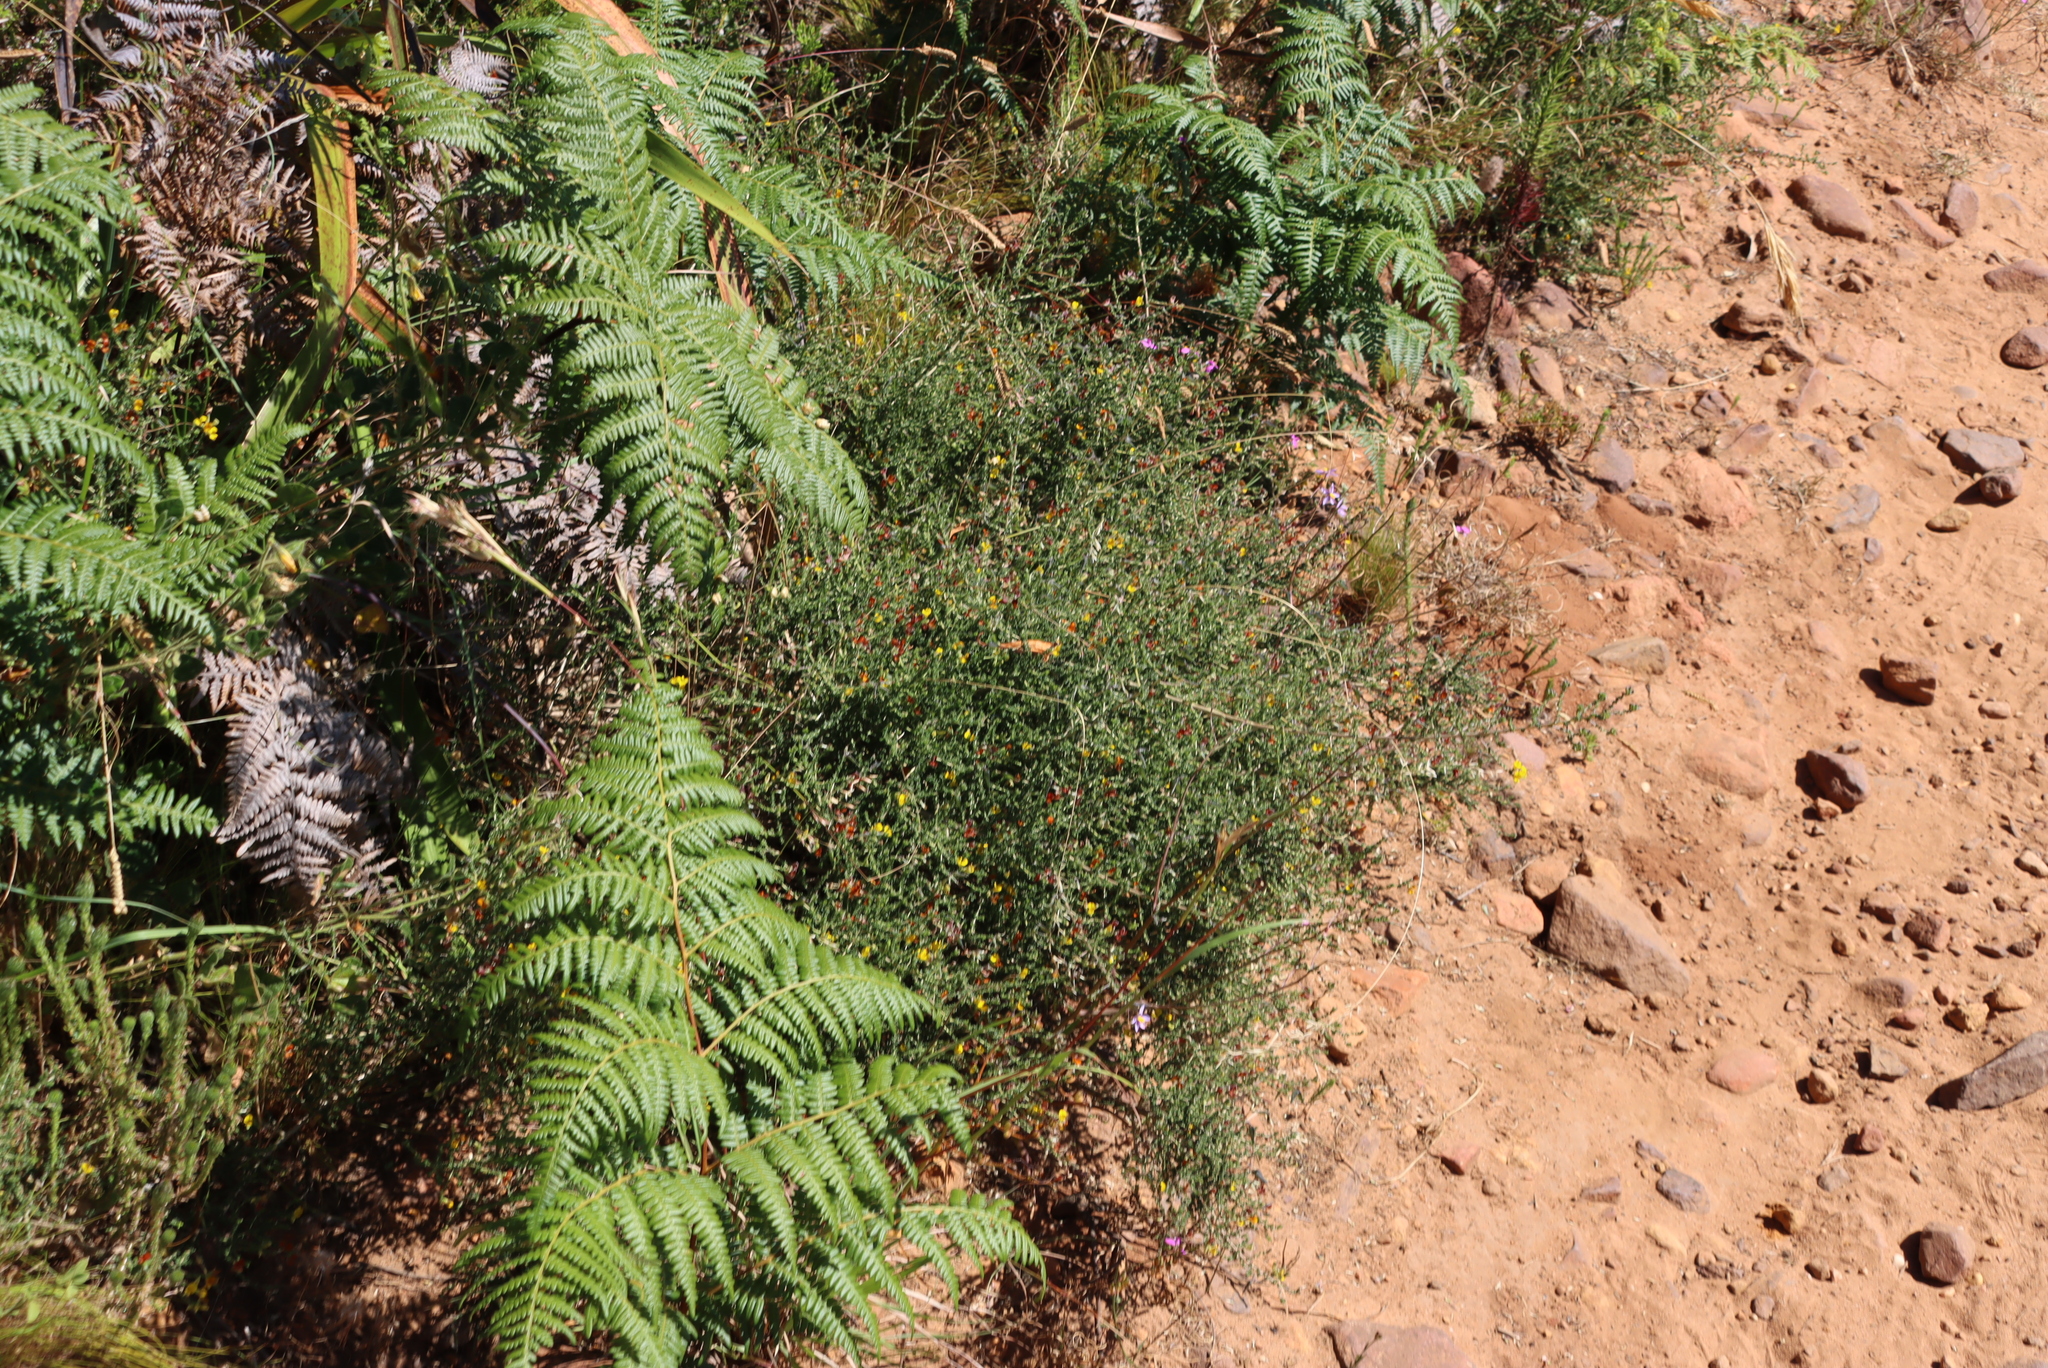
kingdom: Plantae
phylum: Tracheophyta
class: Polypodiopsida
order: Polypodiales
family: Dennstaedtiaceae
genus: Pteridium
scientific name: Pteridium aquilinum
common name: Bracken
